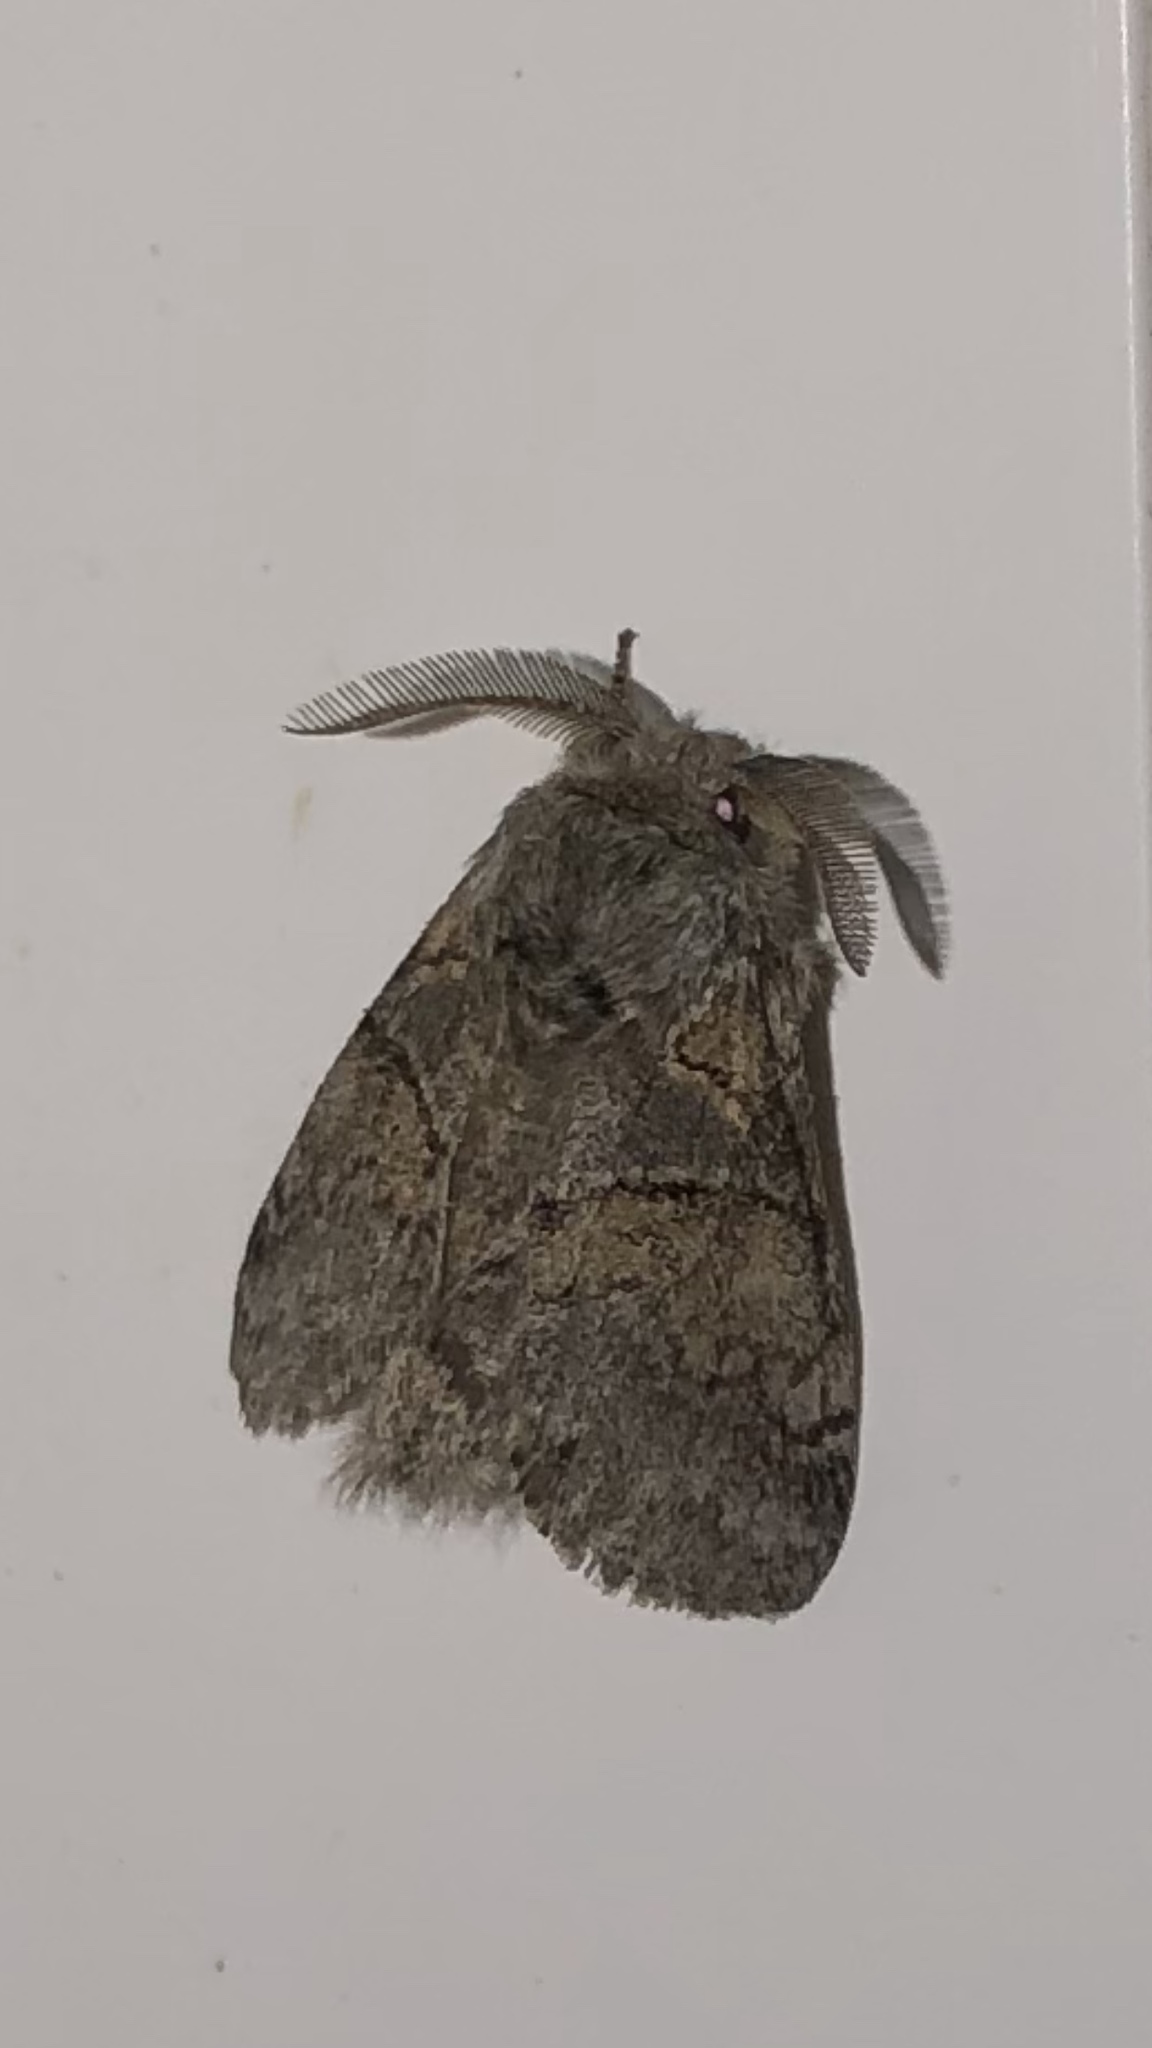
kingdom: Animalia
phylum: Arthropoda
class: Insecta
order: Lepidoptera
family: Notodontidae
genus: Gluphisia
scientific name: Gluphisia septentrionis
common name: Common gluphisia
